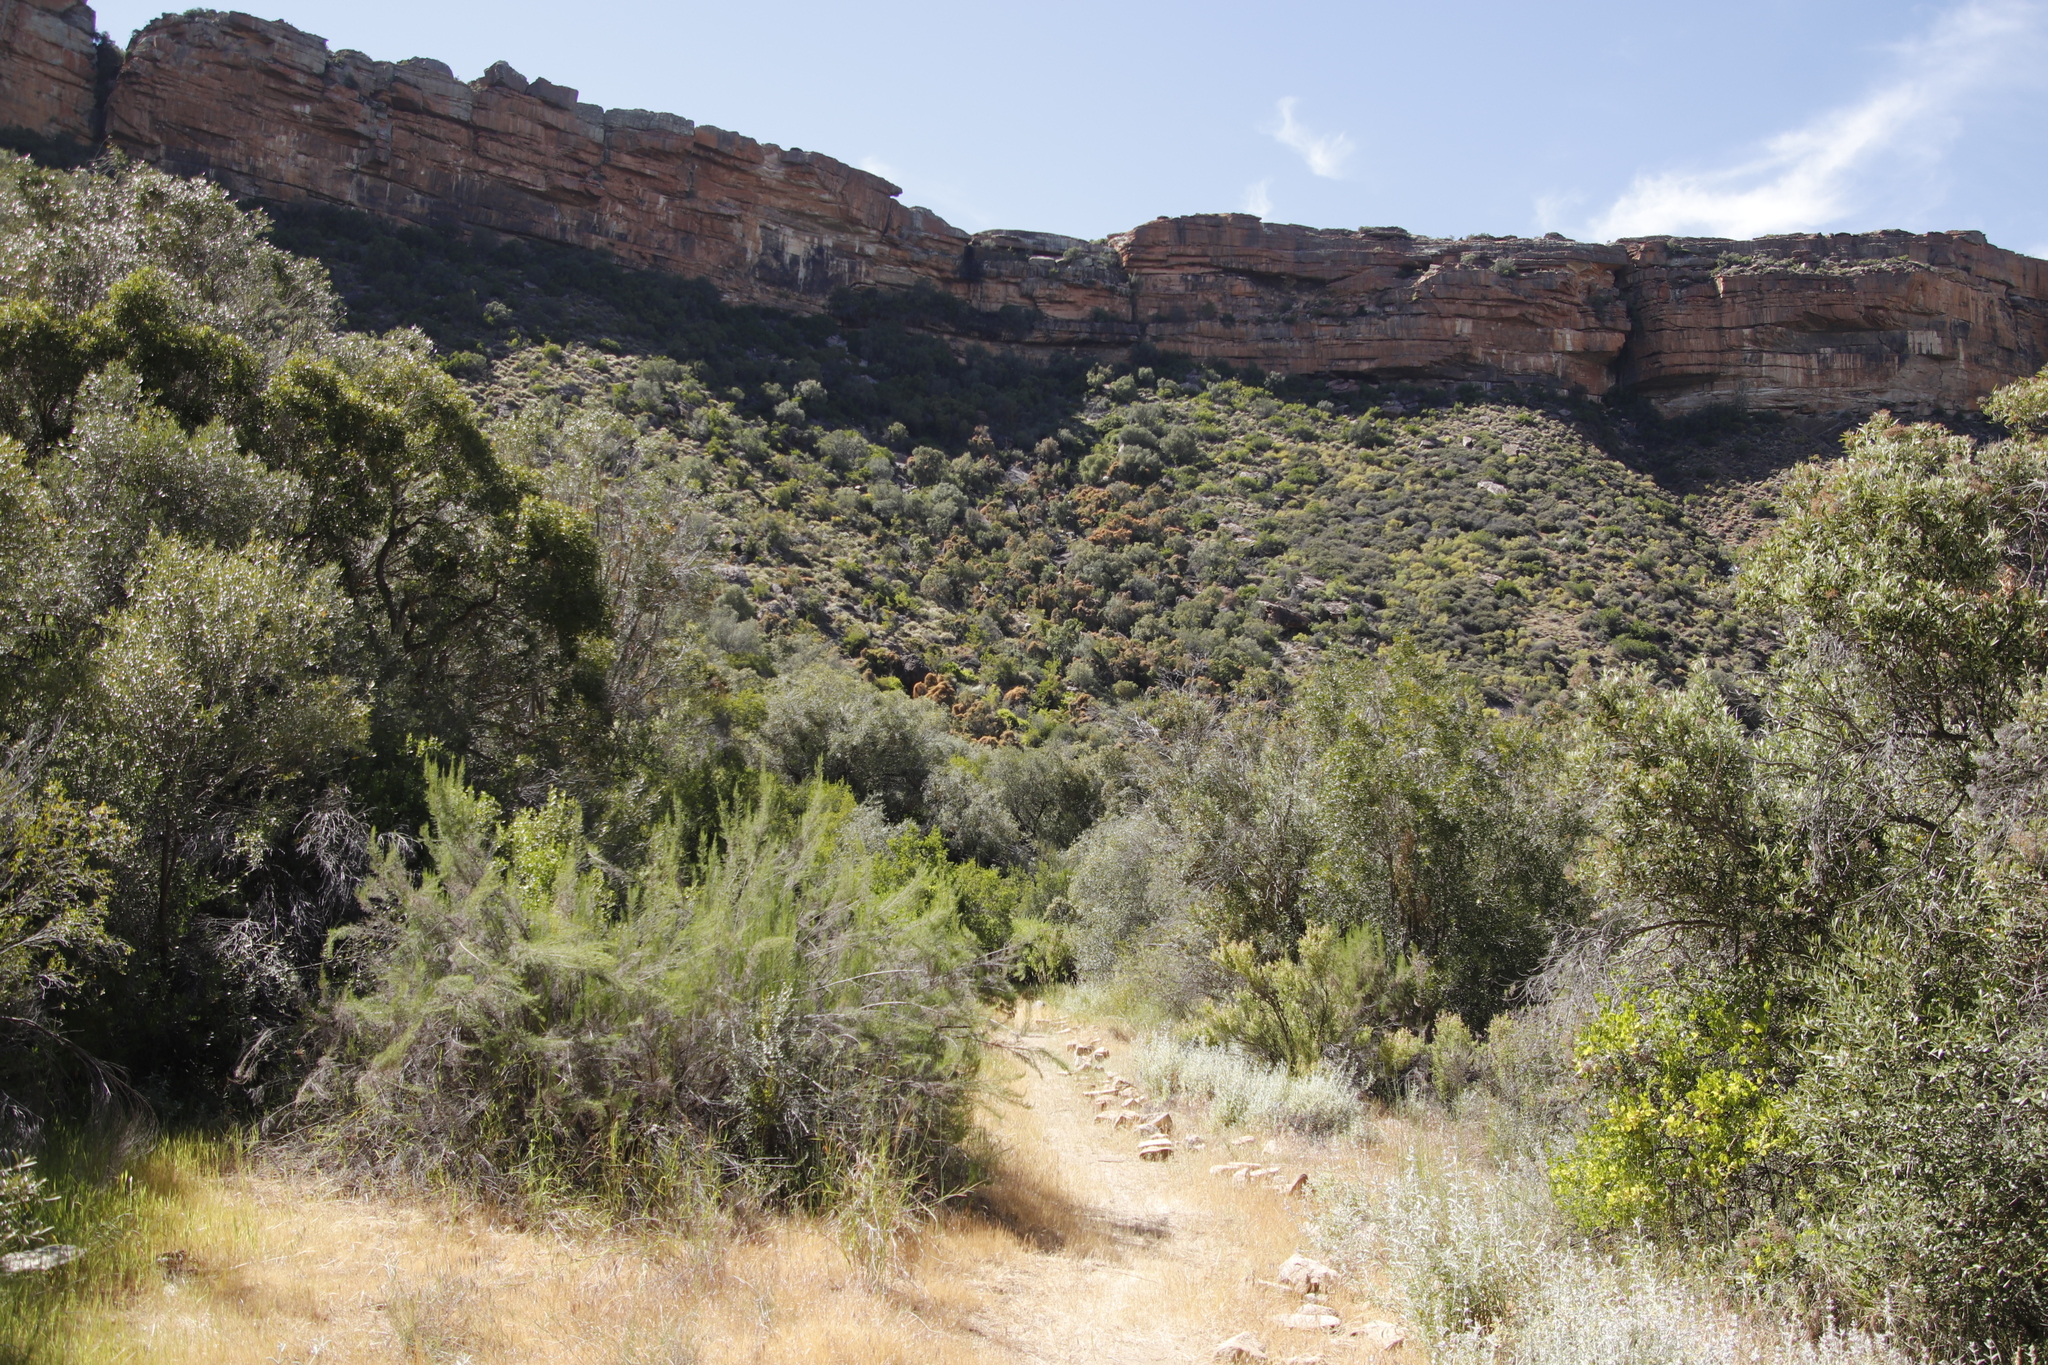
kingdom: Plantae
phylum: Tracheophyta
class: Magnoliopsida
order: Laurales
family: Lauraceae
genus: Cassytha
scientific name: Cassytha ciliolata
